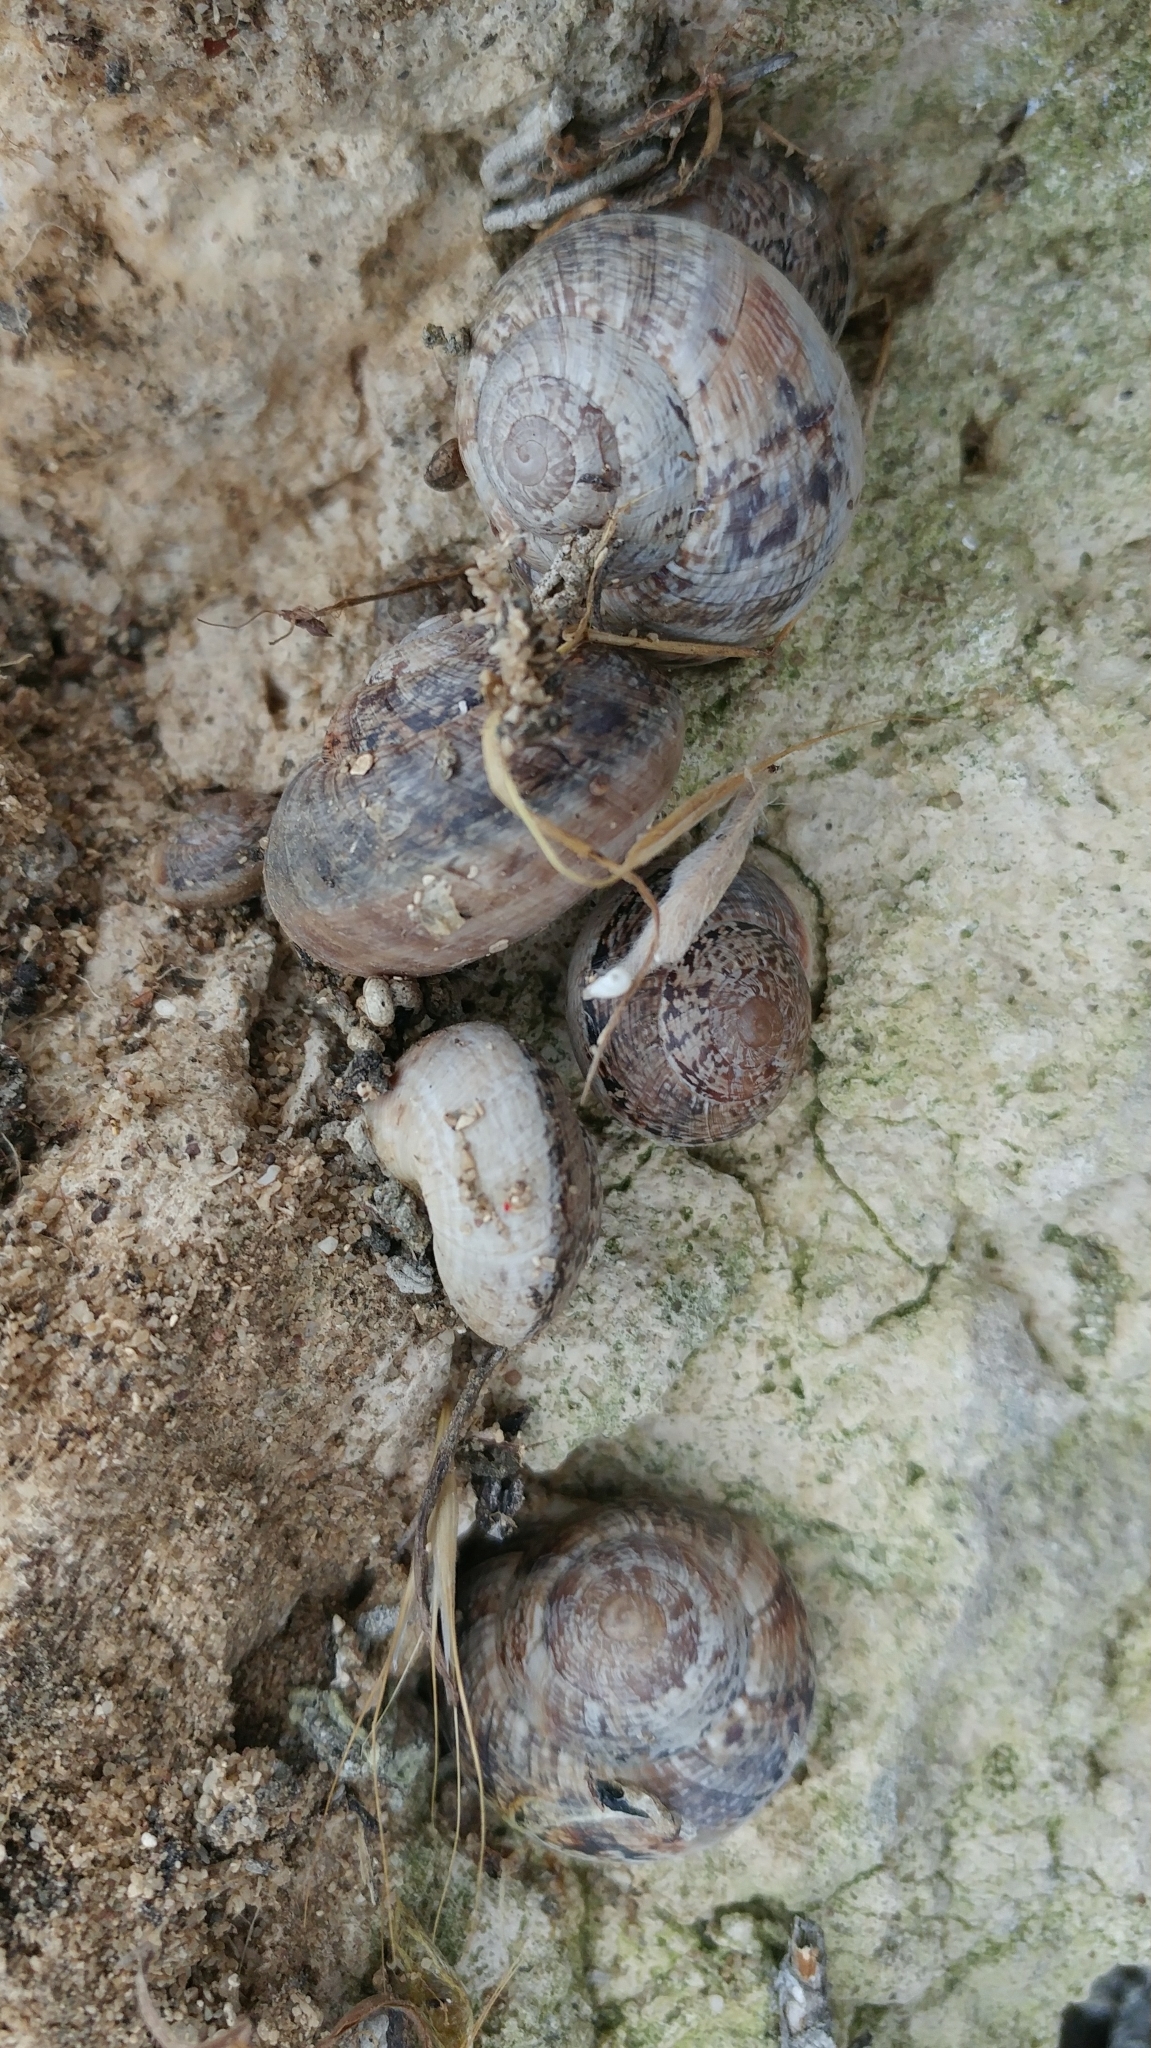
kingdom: Animalia
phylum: Mollusca
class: Gastropoda
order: Stylommatophora
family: Xanthonychidae
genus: Xerarionta
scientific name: Xerarionta tryoni
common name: Bicolor cactus snail
